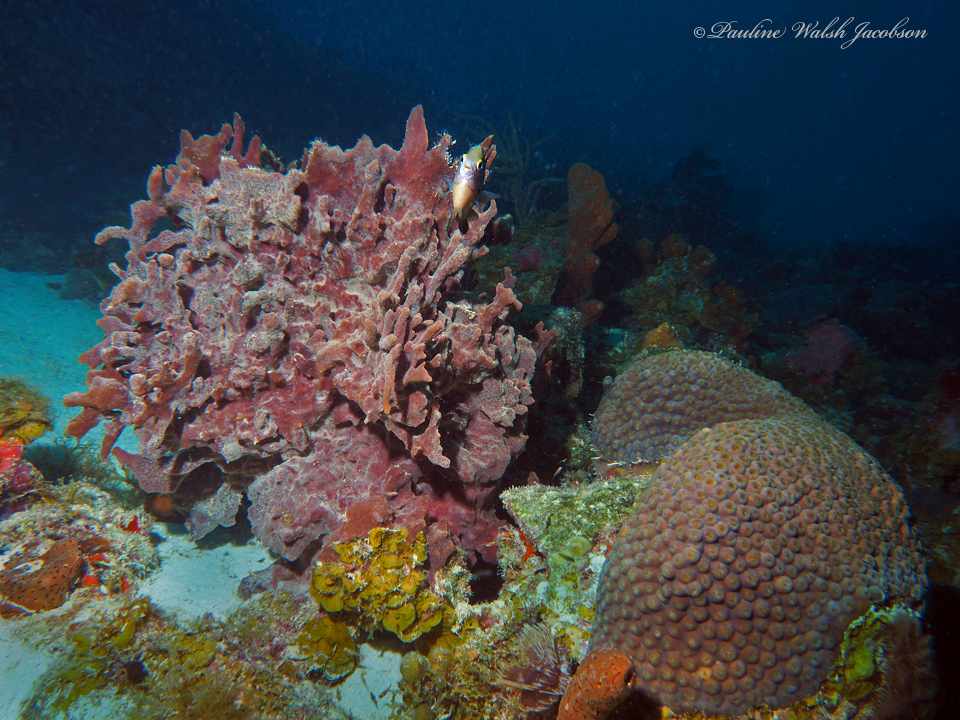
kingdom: Animalia
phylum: Cnidaria
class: Anthozoa
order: Scleractinia
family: Montastraeidae
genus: Montastraea
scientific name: Montastraea cavernosa
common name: Great star coral
